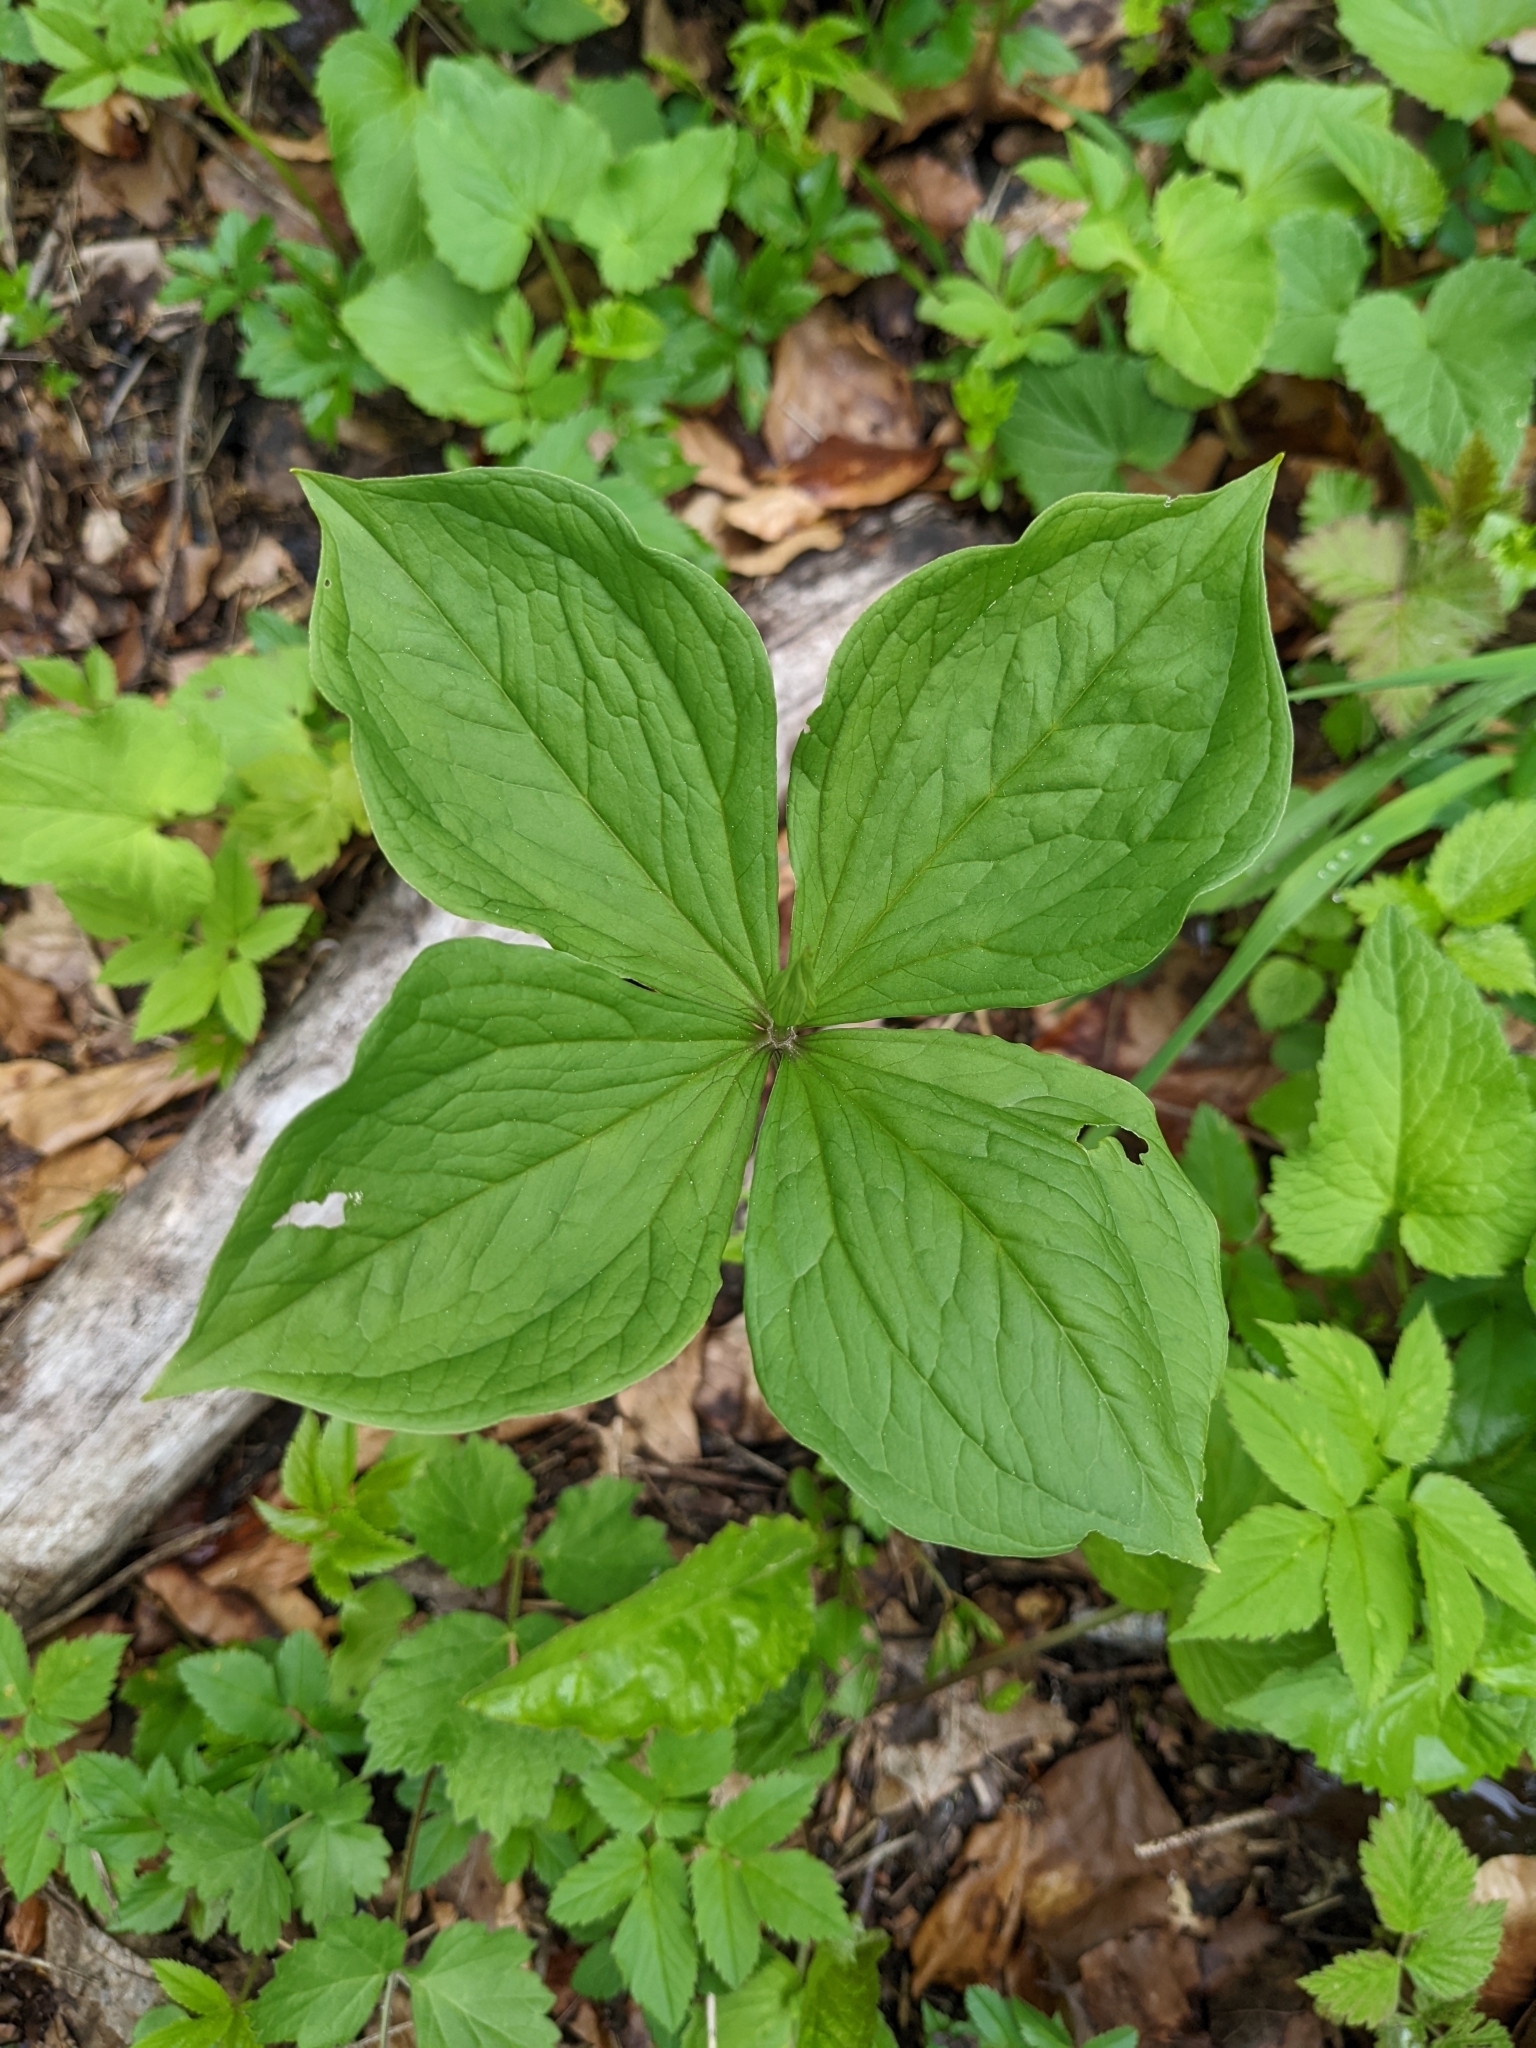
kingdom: Plantae
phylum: Tracheophyta
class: Liliopsida
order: Liliales
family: Melanthiaceae
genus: Paris
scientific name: Paris quadrifolia
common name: Herb-paris
